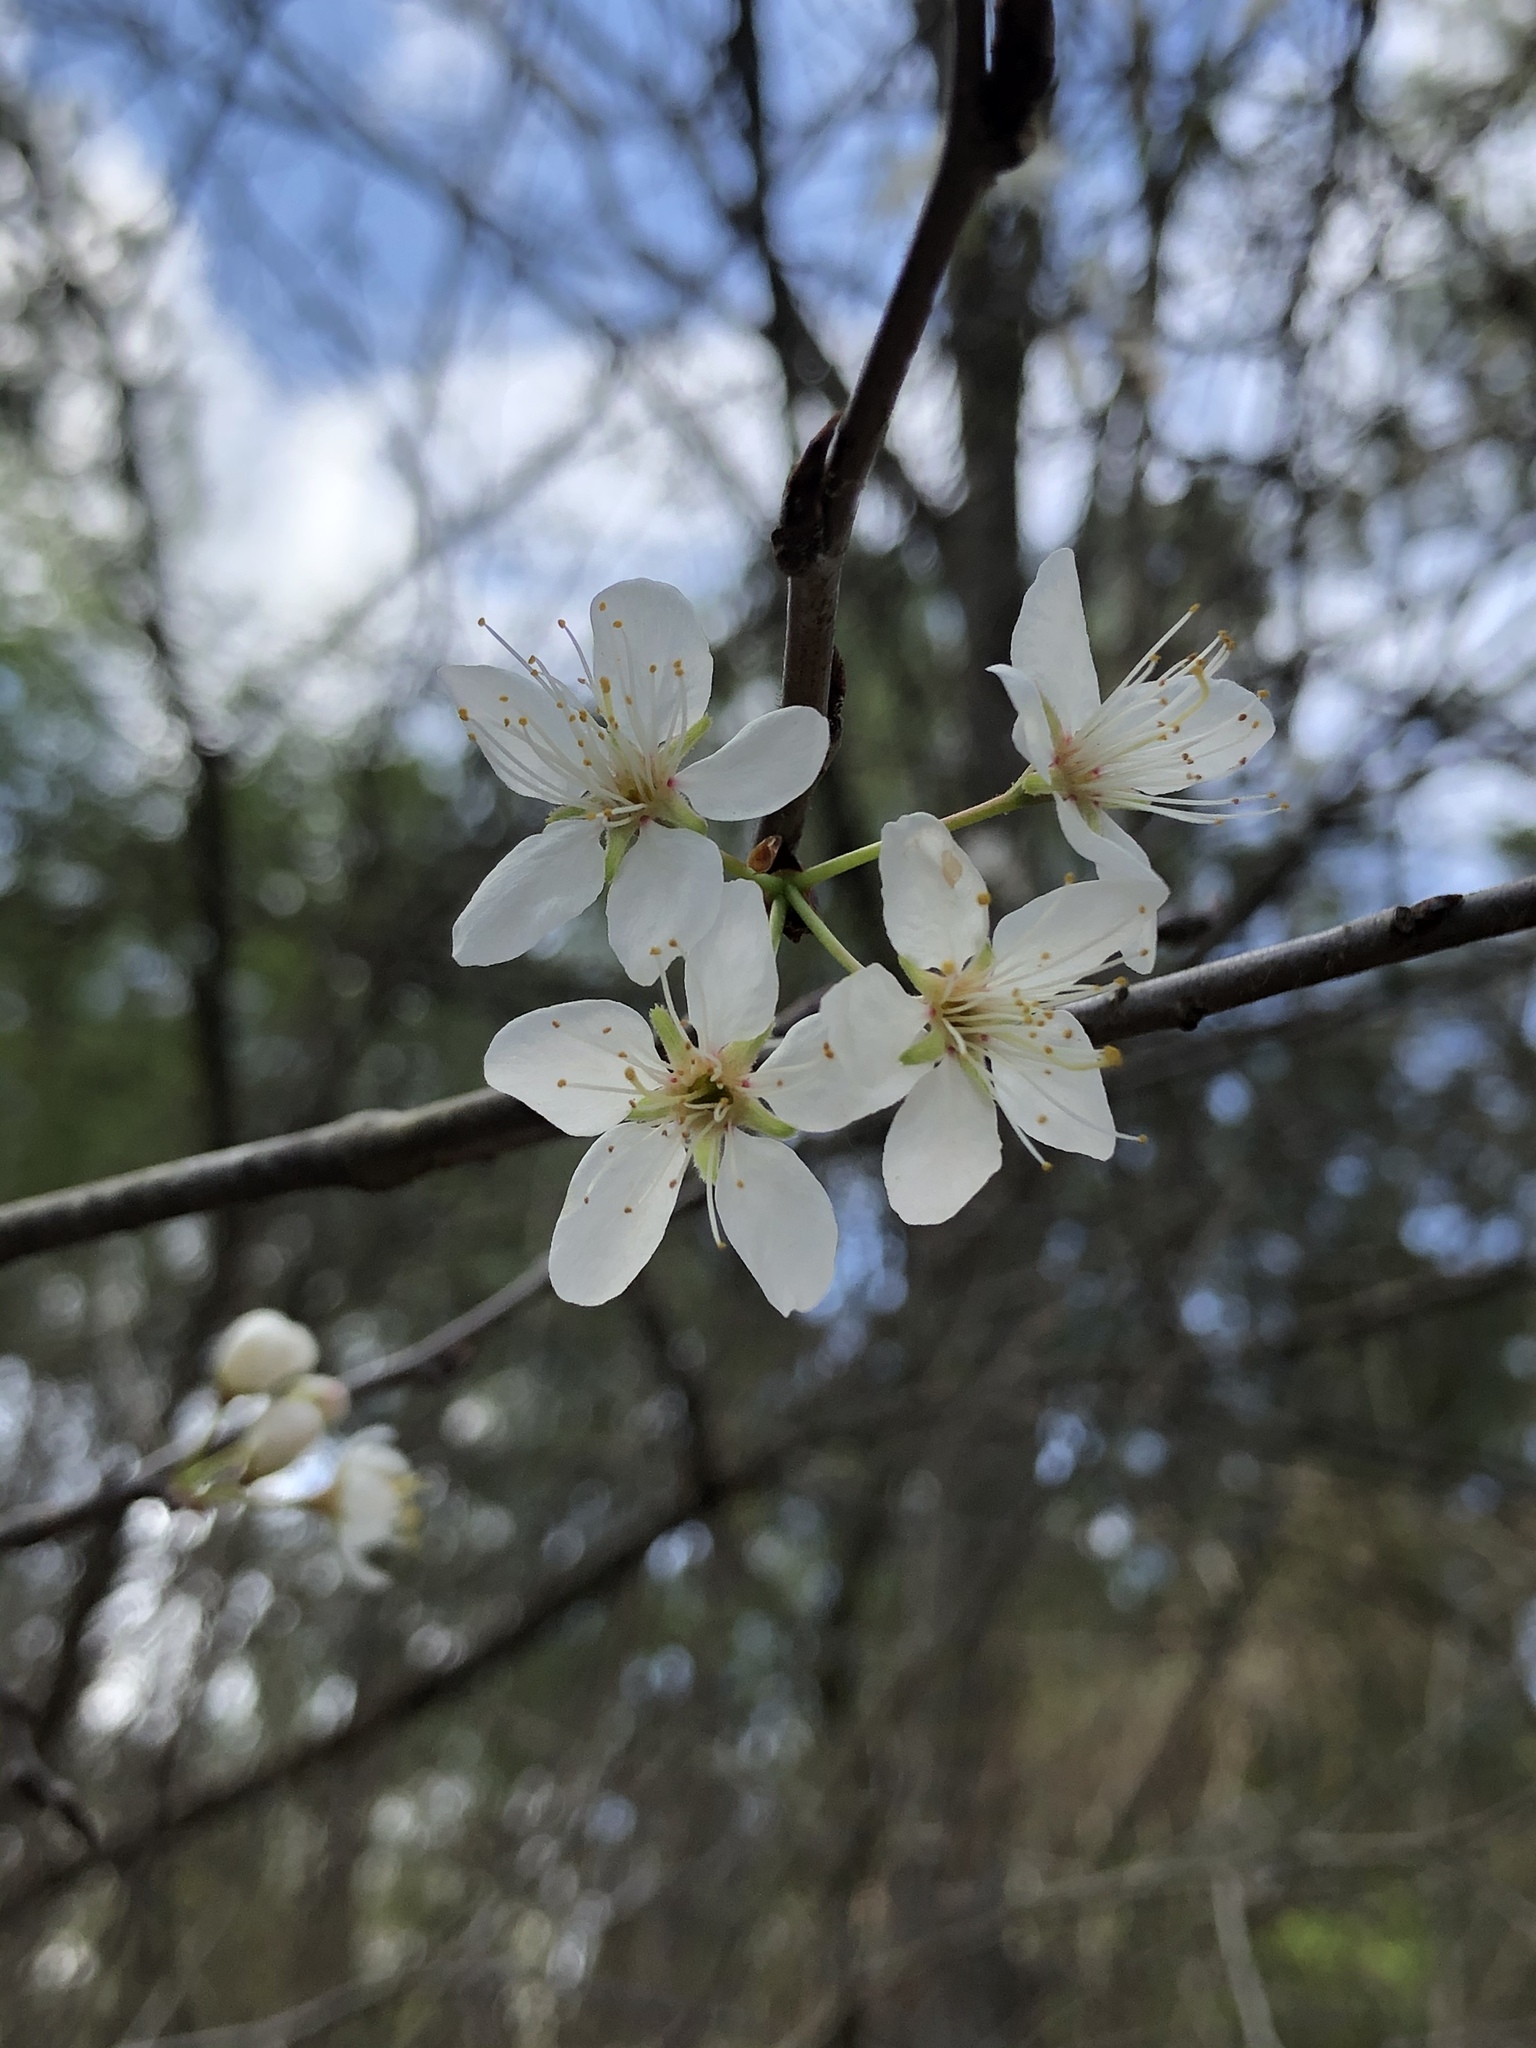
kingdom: Plantae
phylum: Tracheophyta
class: Magnoliopsida
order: Rosales
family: Rosaceae
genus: Prunus
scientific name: Prunus mexicana
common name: Mexican plum
